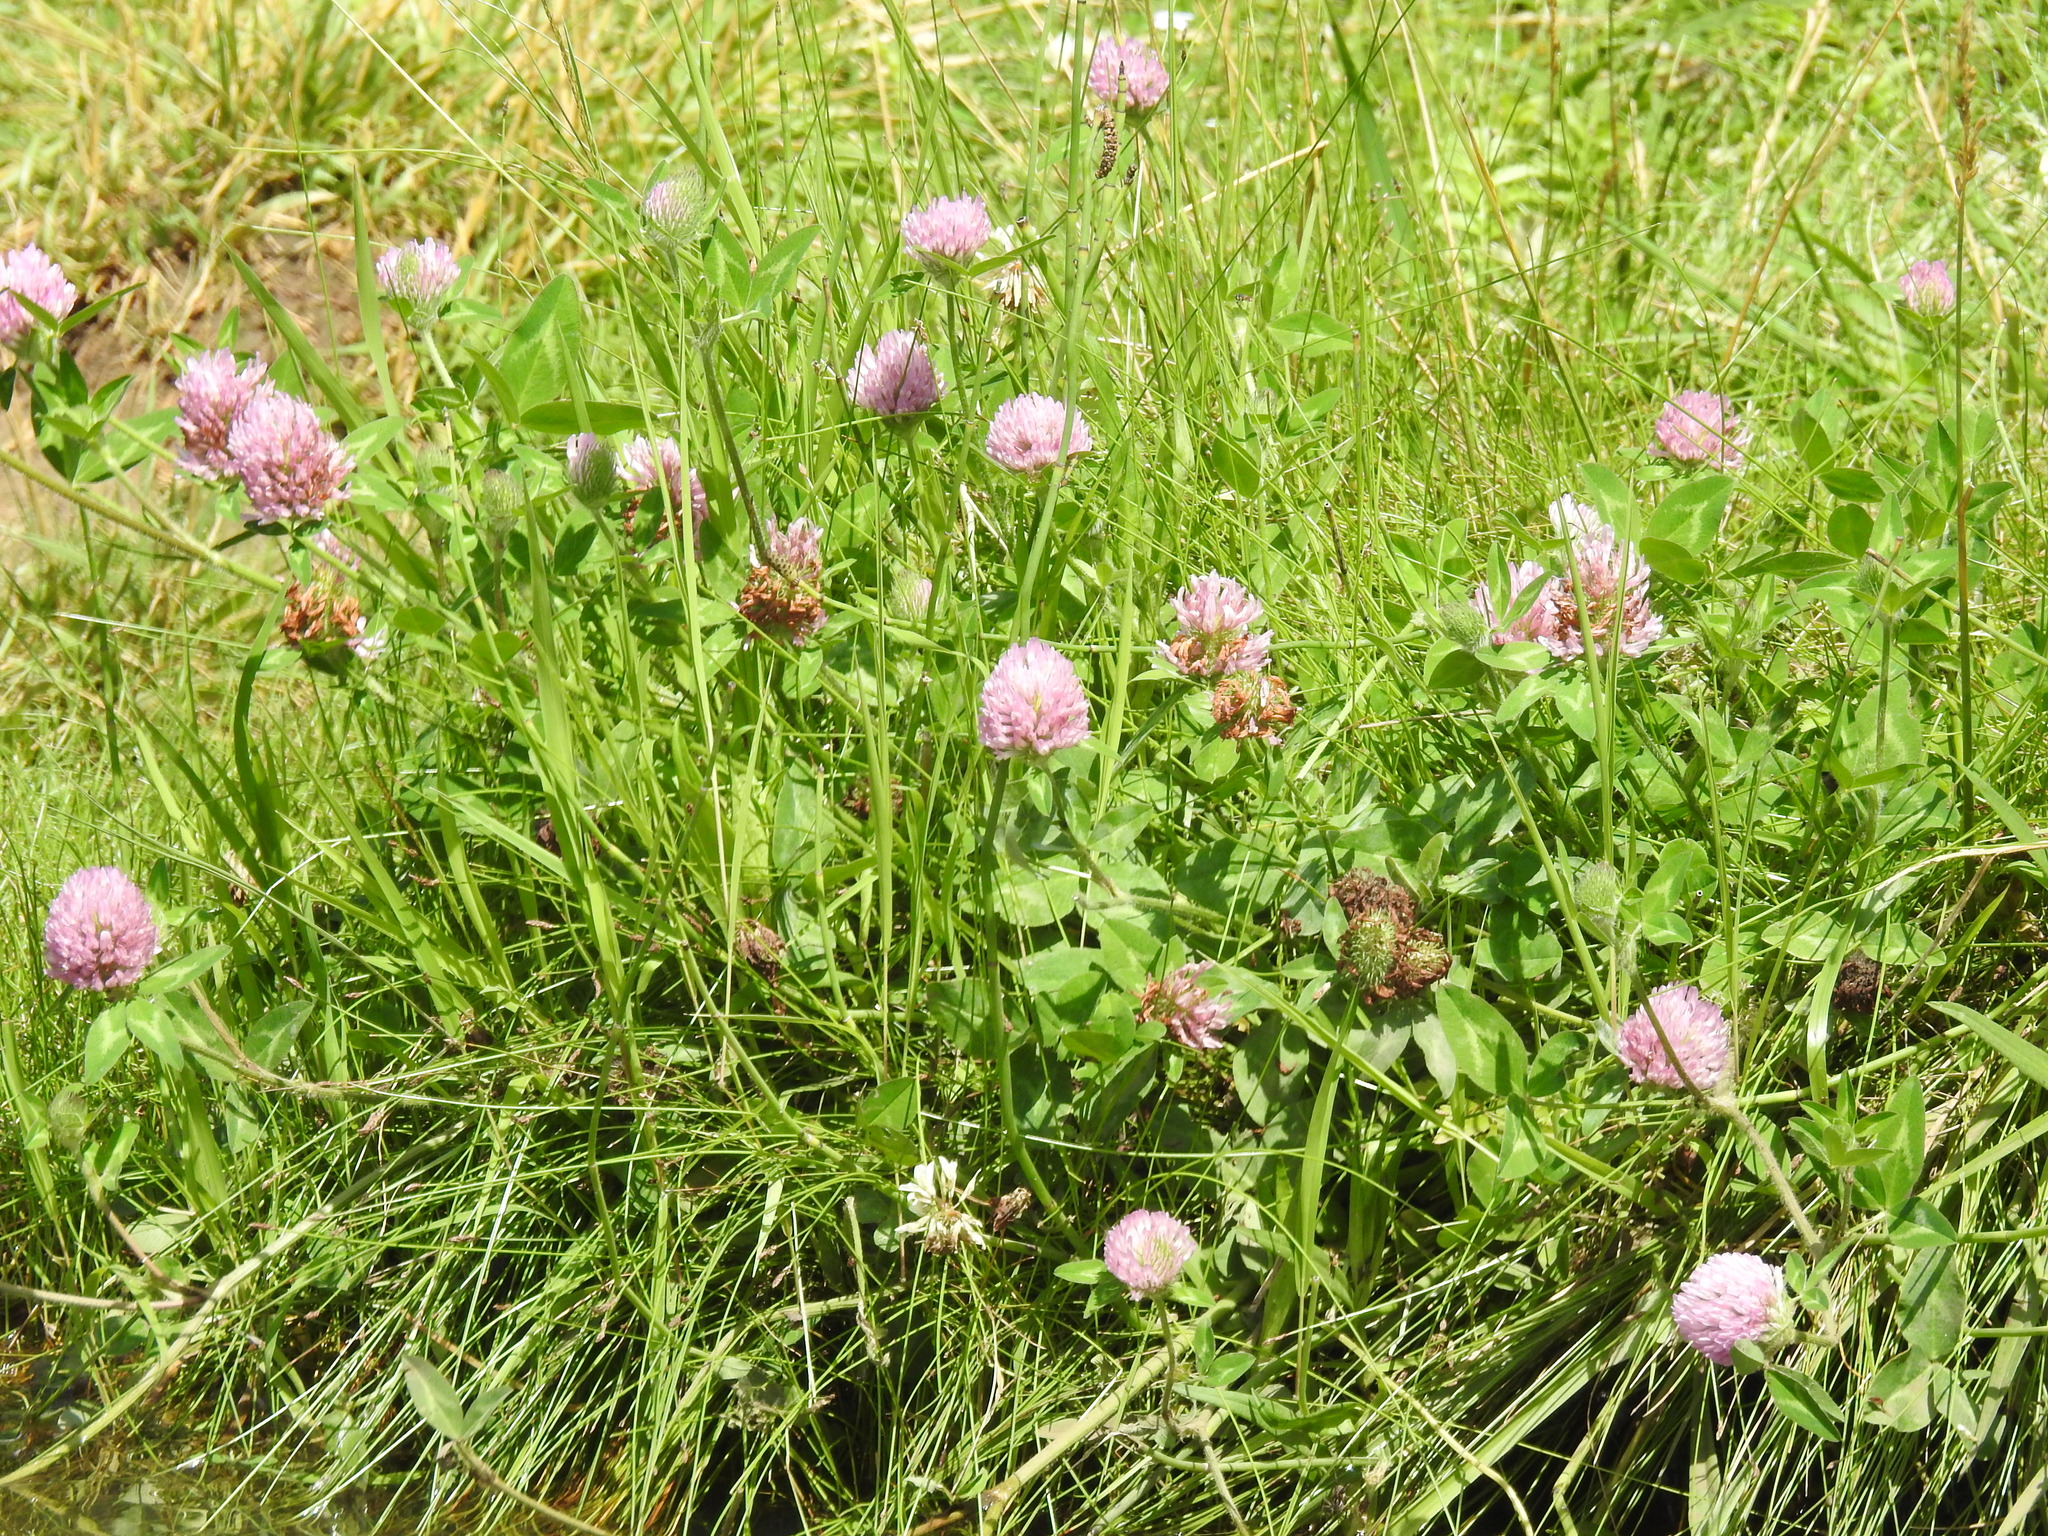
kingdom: Plantae
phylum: Tracheophyta
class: Magnoliopsida
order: Fabales
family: Fabaceae
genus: Trifolium
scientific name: Trifolium pratense
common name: Red clover
